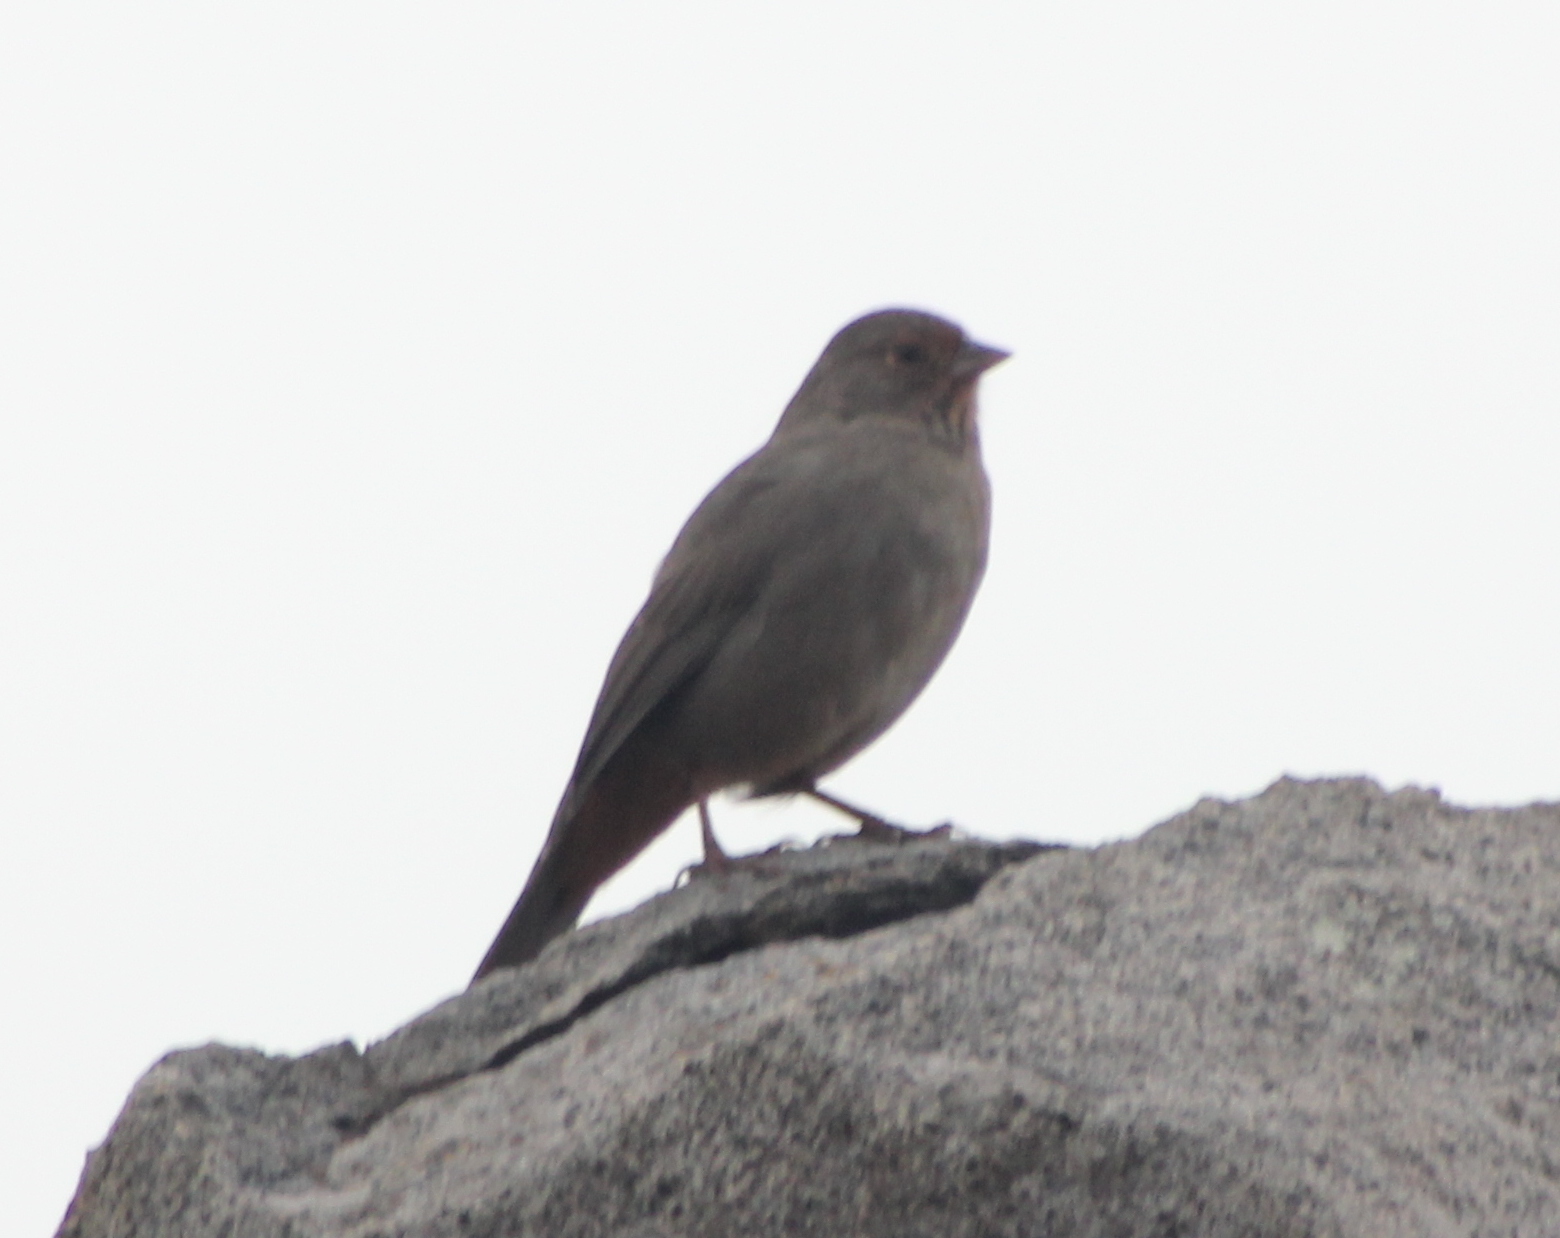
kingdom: Animalia
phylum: Chordata
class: Aves
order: Passeriformes
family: Passerellidae
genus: Melozone
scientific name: Melozone crissalis
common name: California towhee
